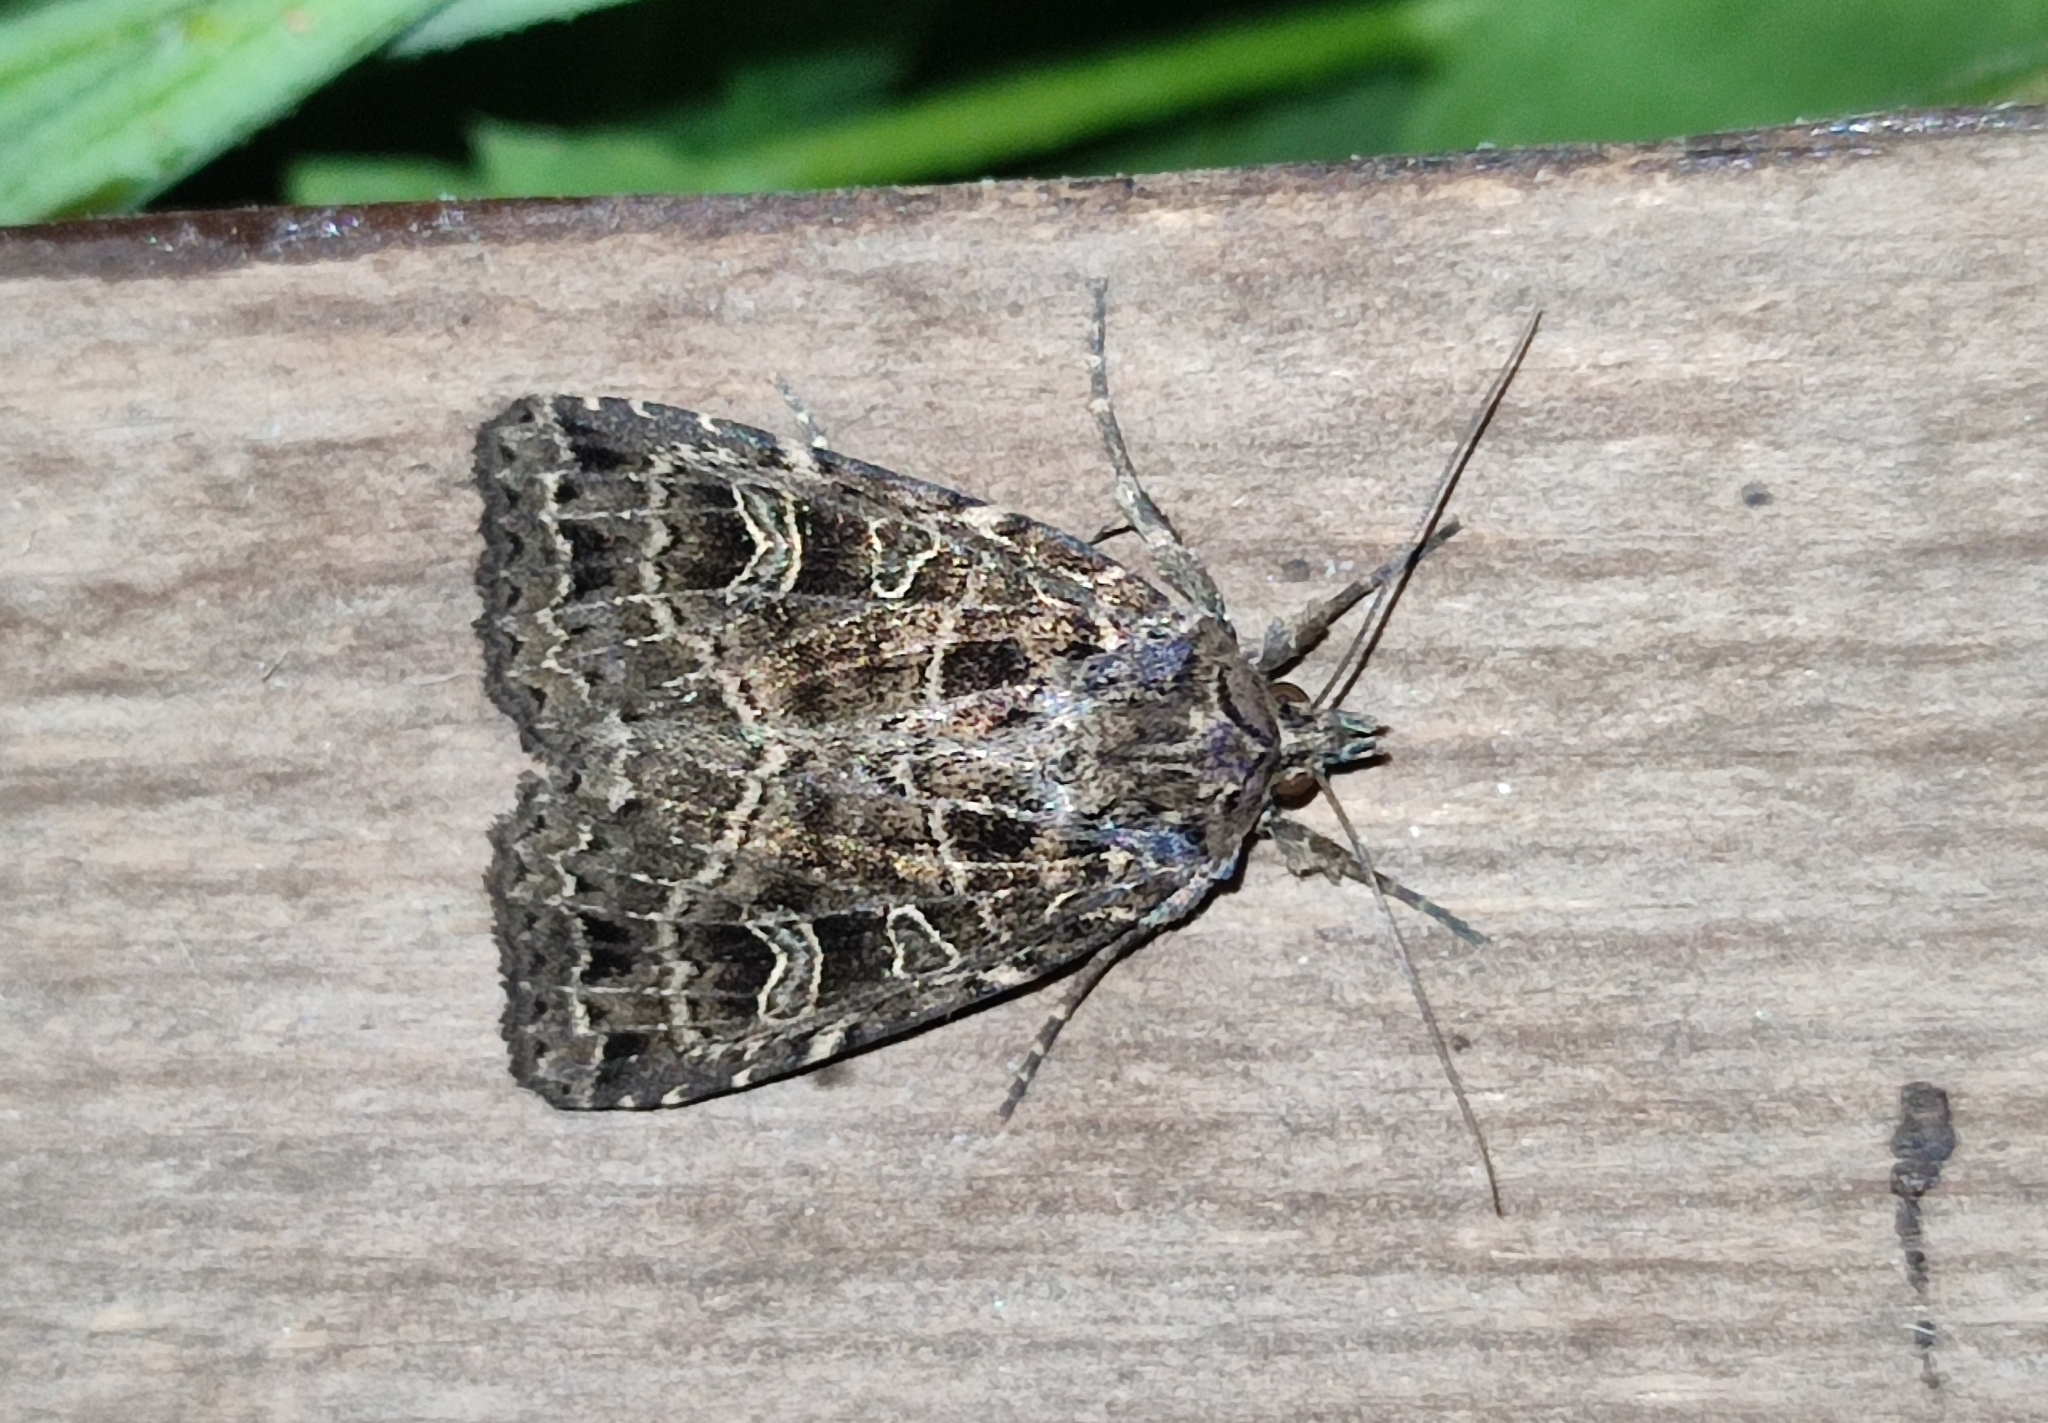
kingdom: Animalia
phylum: Arthropoda
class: Insecta
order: Lepidoptera
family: Noctuidae
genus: Naenia
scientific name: Naenia typica
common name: Gothic
